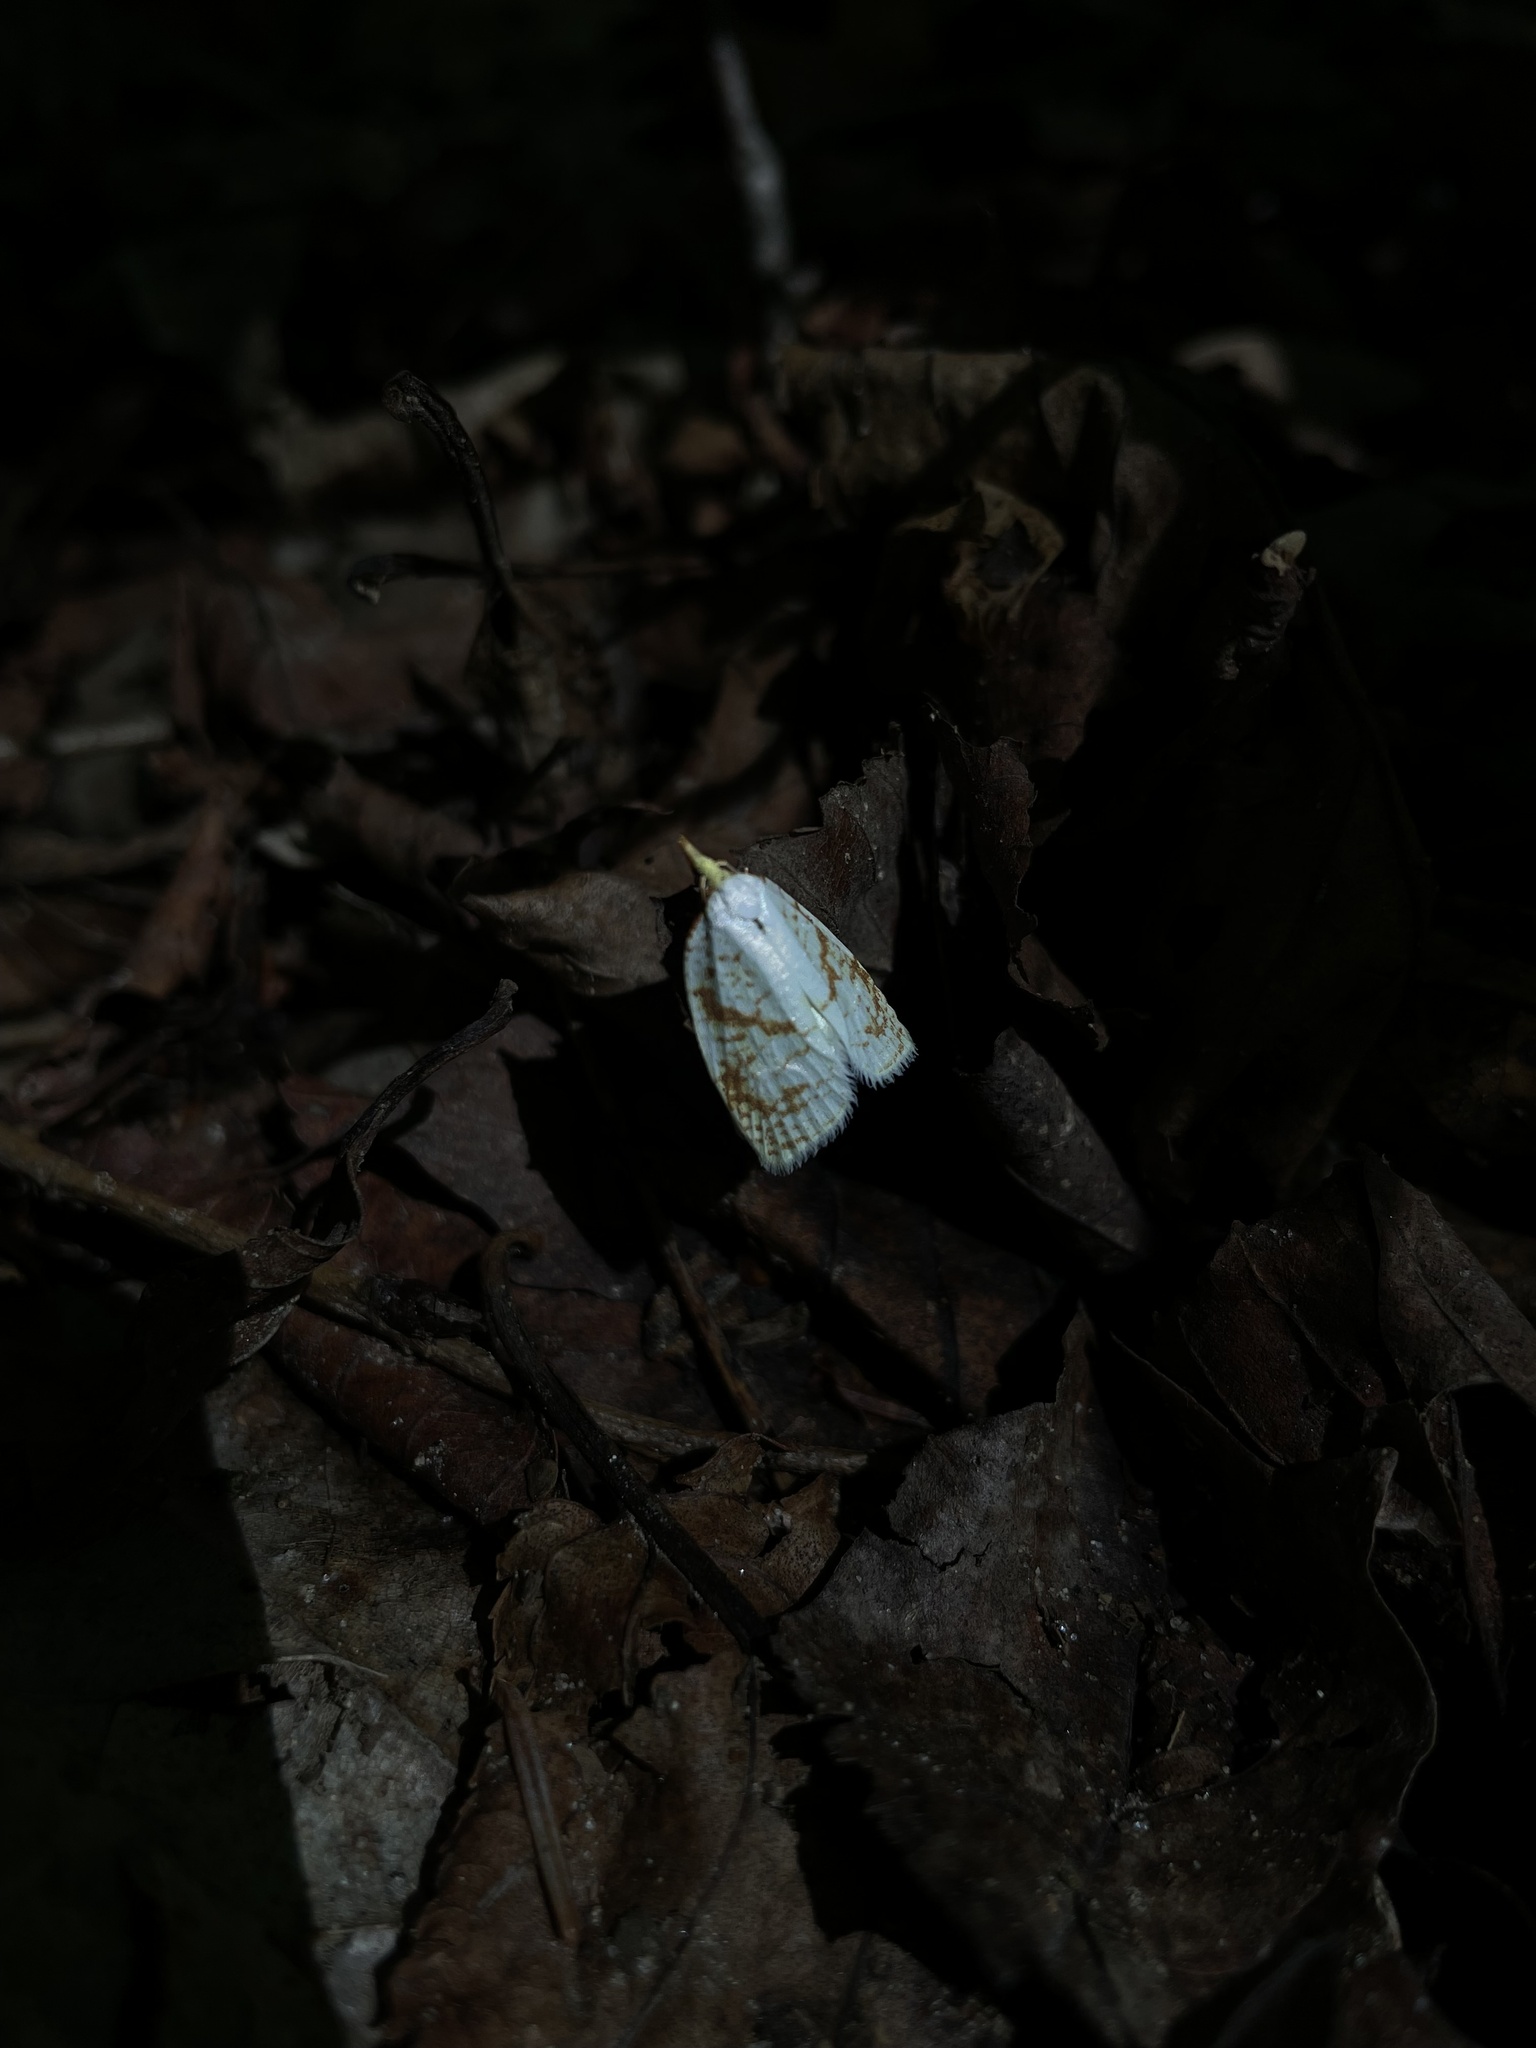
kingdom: Animalia
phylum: Arthropoda
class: Insecta
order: Lepidoptera
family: Tortricidae
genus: Cenopis
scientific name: Cenopis pettitana
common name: Maple-basswood leafroller moth
